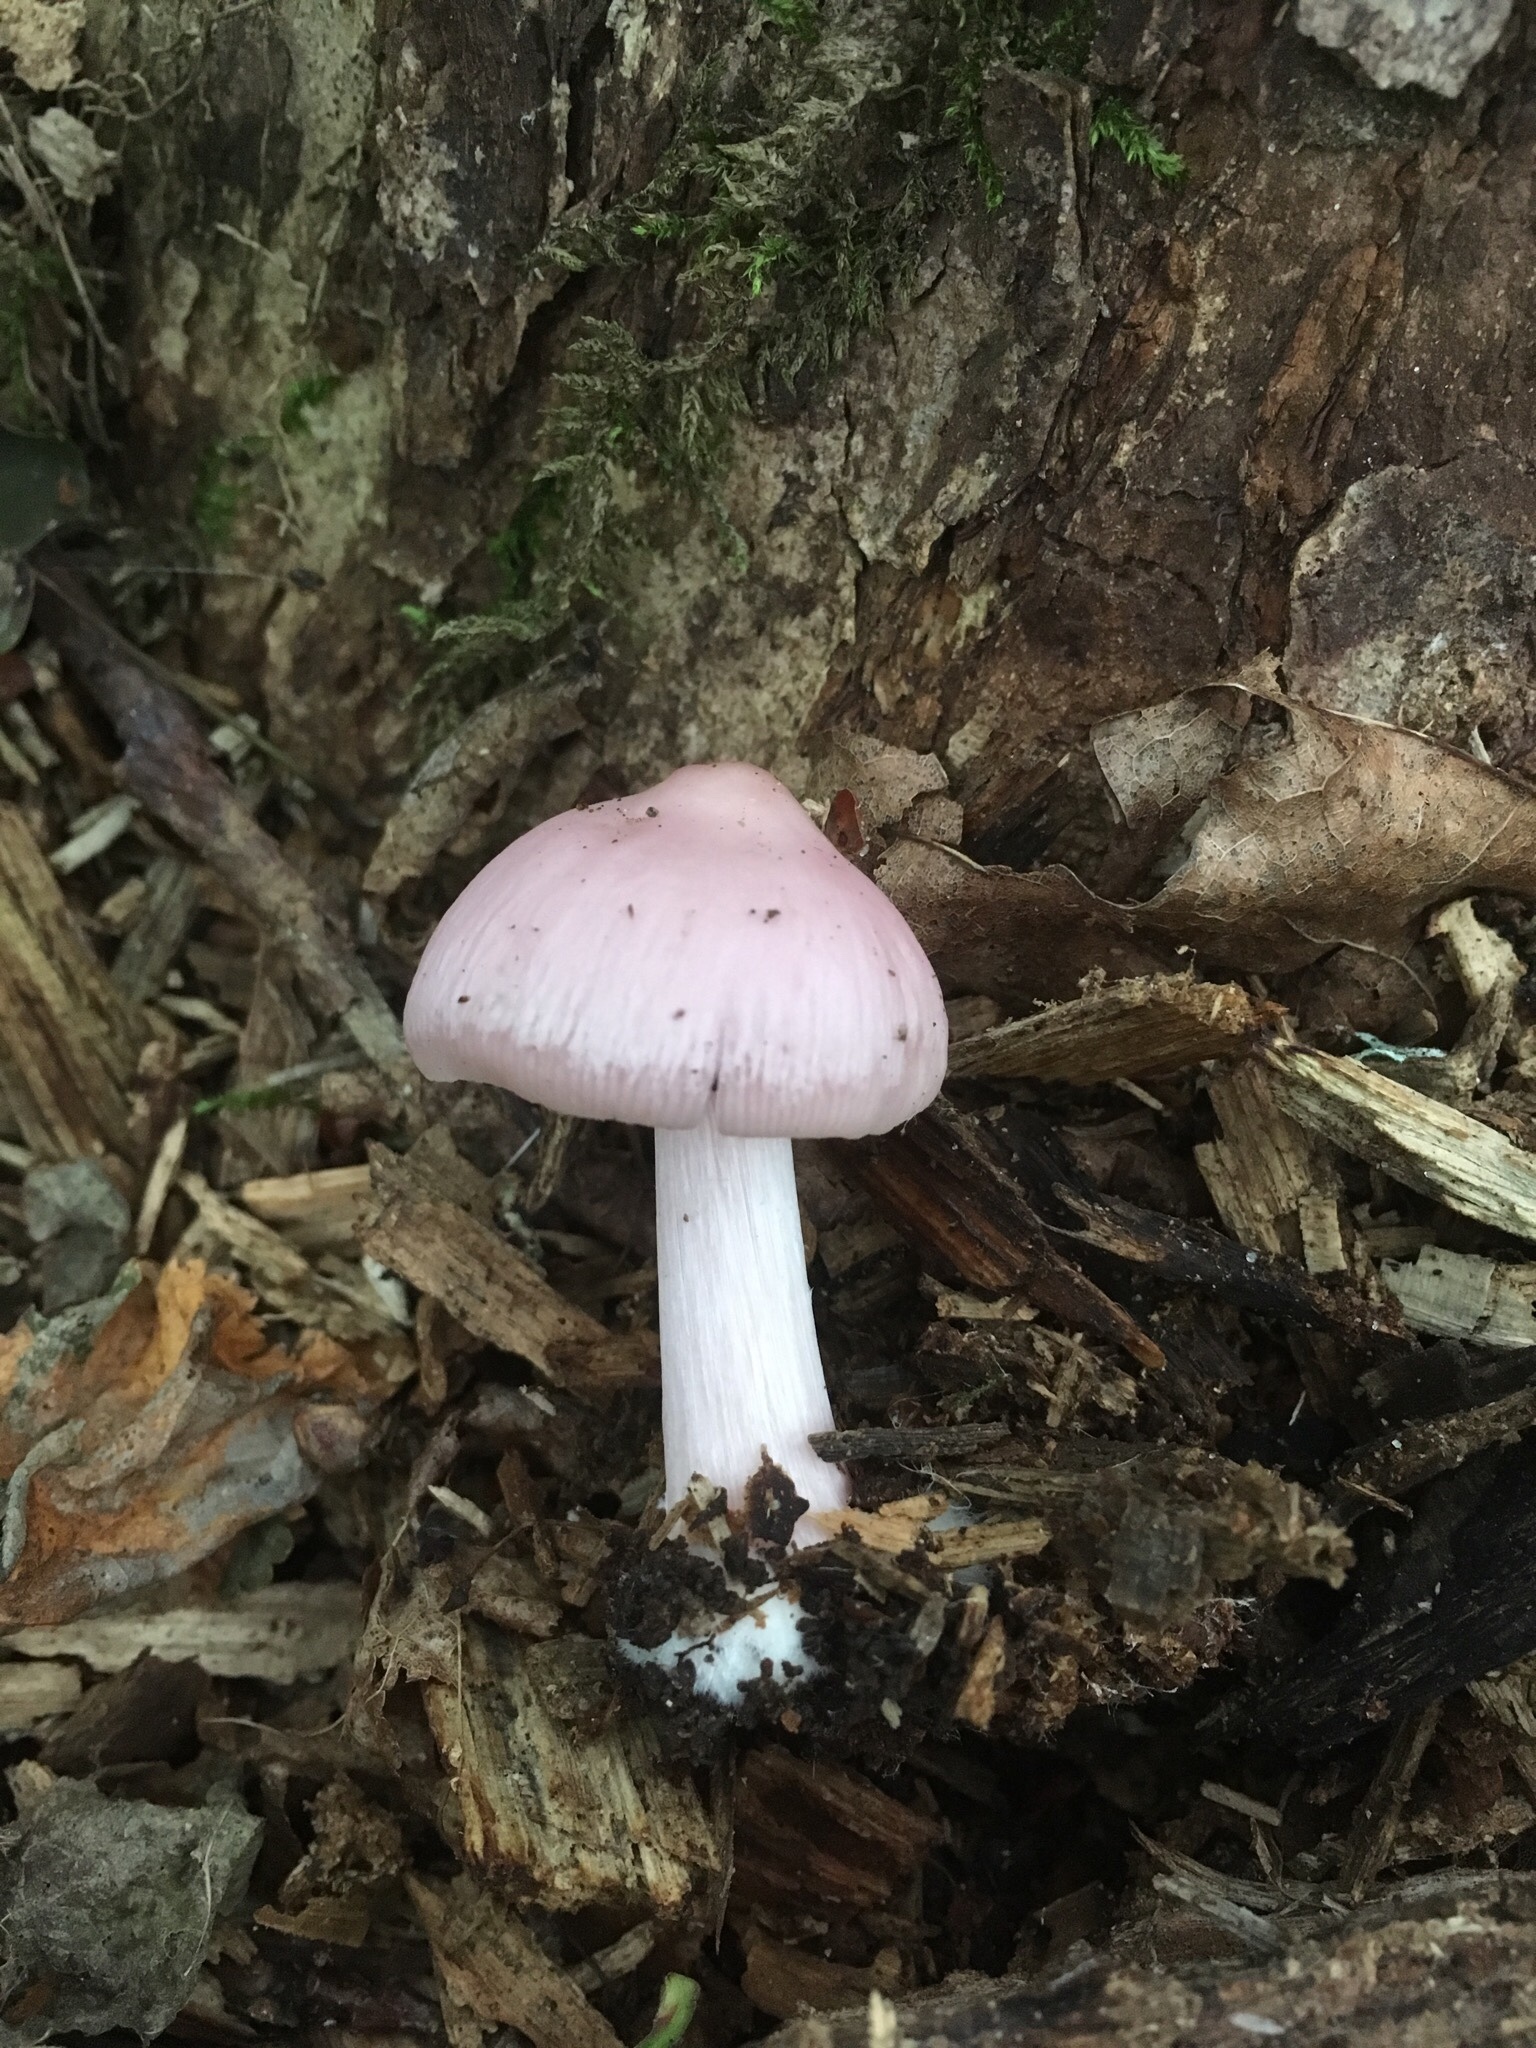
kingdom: Fungi
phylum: Basidiomycota
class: Agaricomycetes
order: Agaricales
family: Mycenaceae
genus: Mycena
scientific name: Mycena rosea
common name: Rosy bonnet
